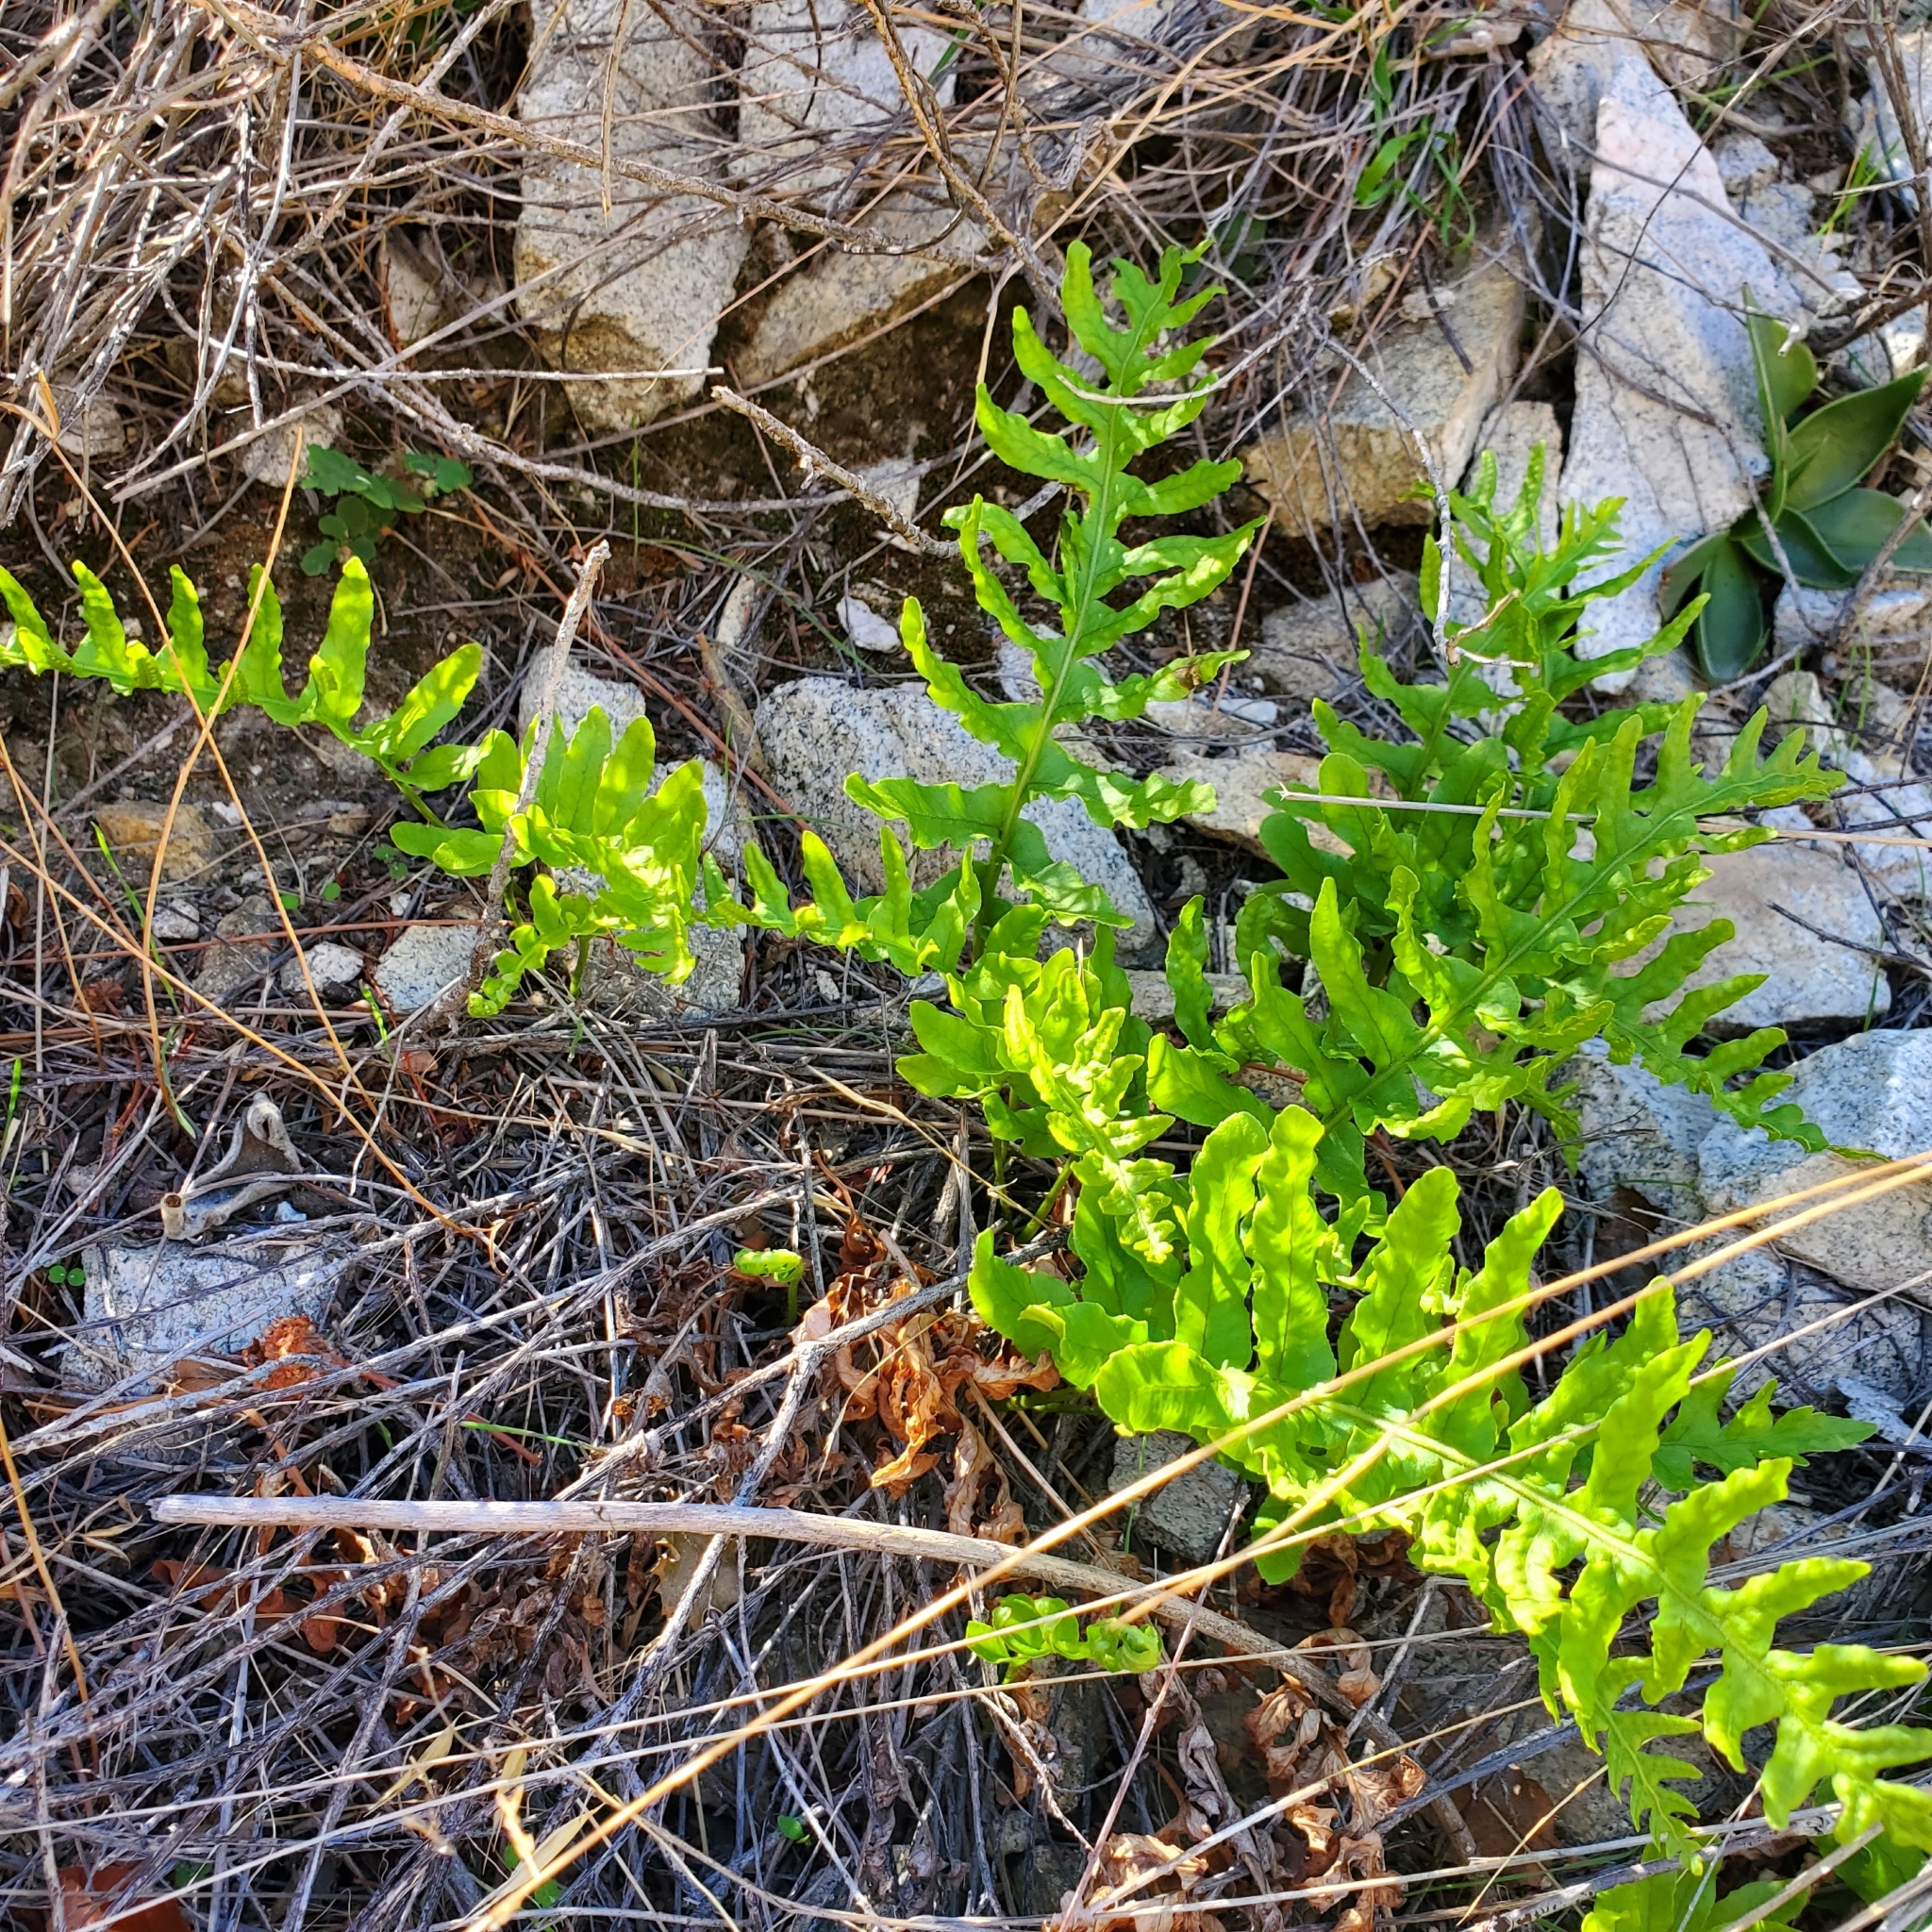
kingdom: Plantae
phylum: Tracheophyta
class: Polypodiopsida
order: Polypodiales
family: Polypodiaceae
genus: Polypodium
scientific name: Polypodium californicum
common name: California polypody
